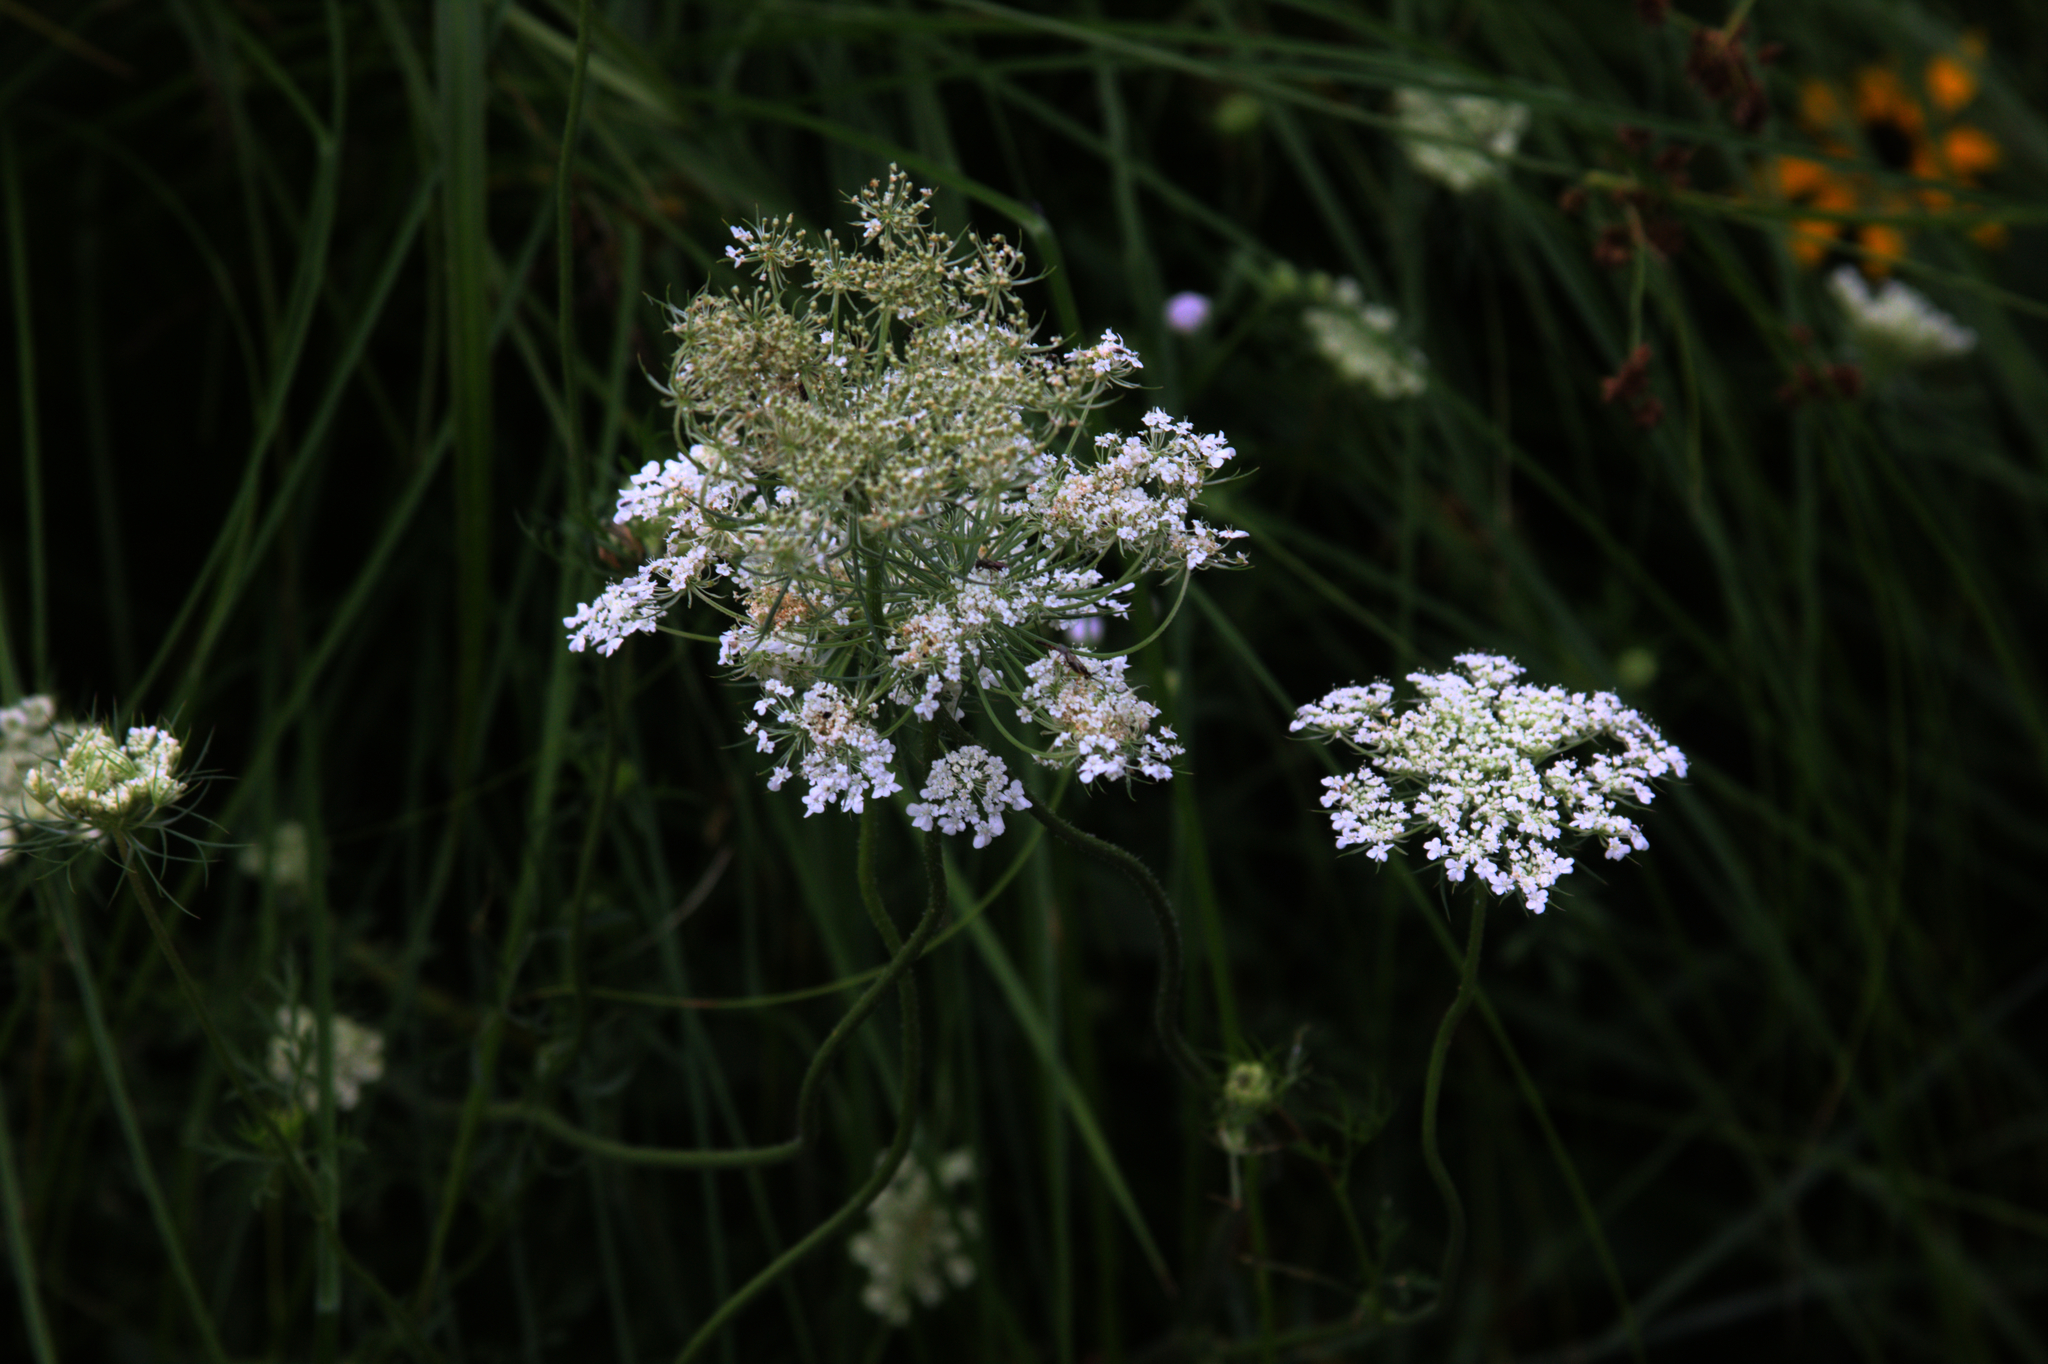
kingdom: Plantae
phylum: Tracheophyta
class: Magnoliopsida
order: Apiales
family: Apiaceae
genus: Daucus
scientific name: Daucus carota
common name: Wild carrot
